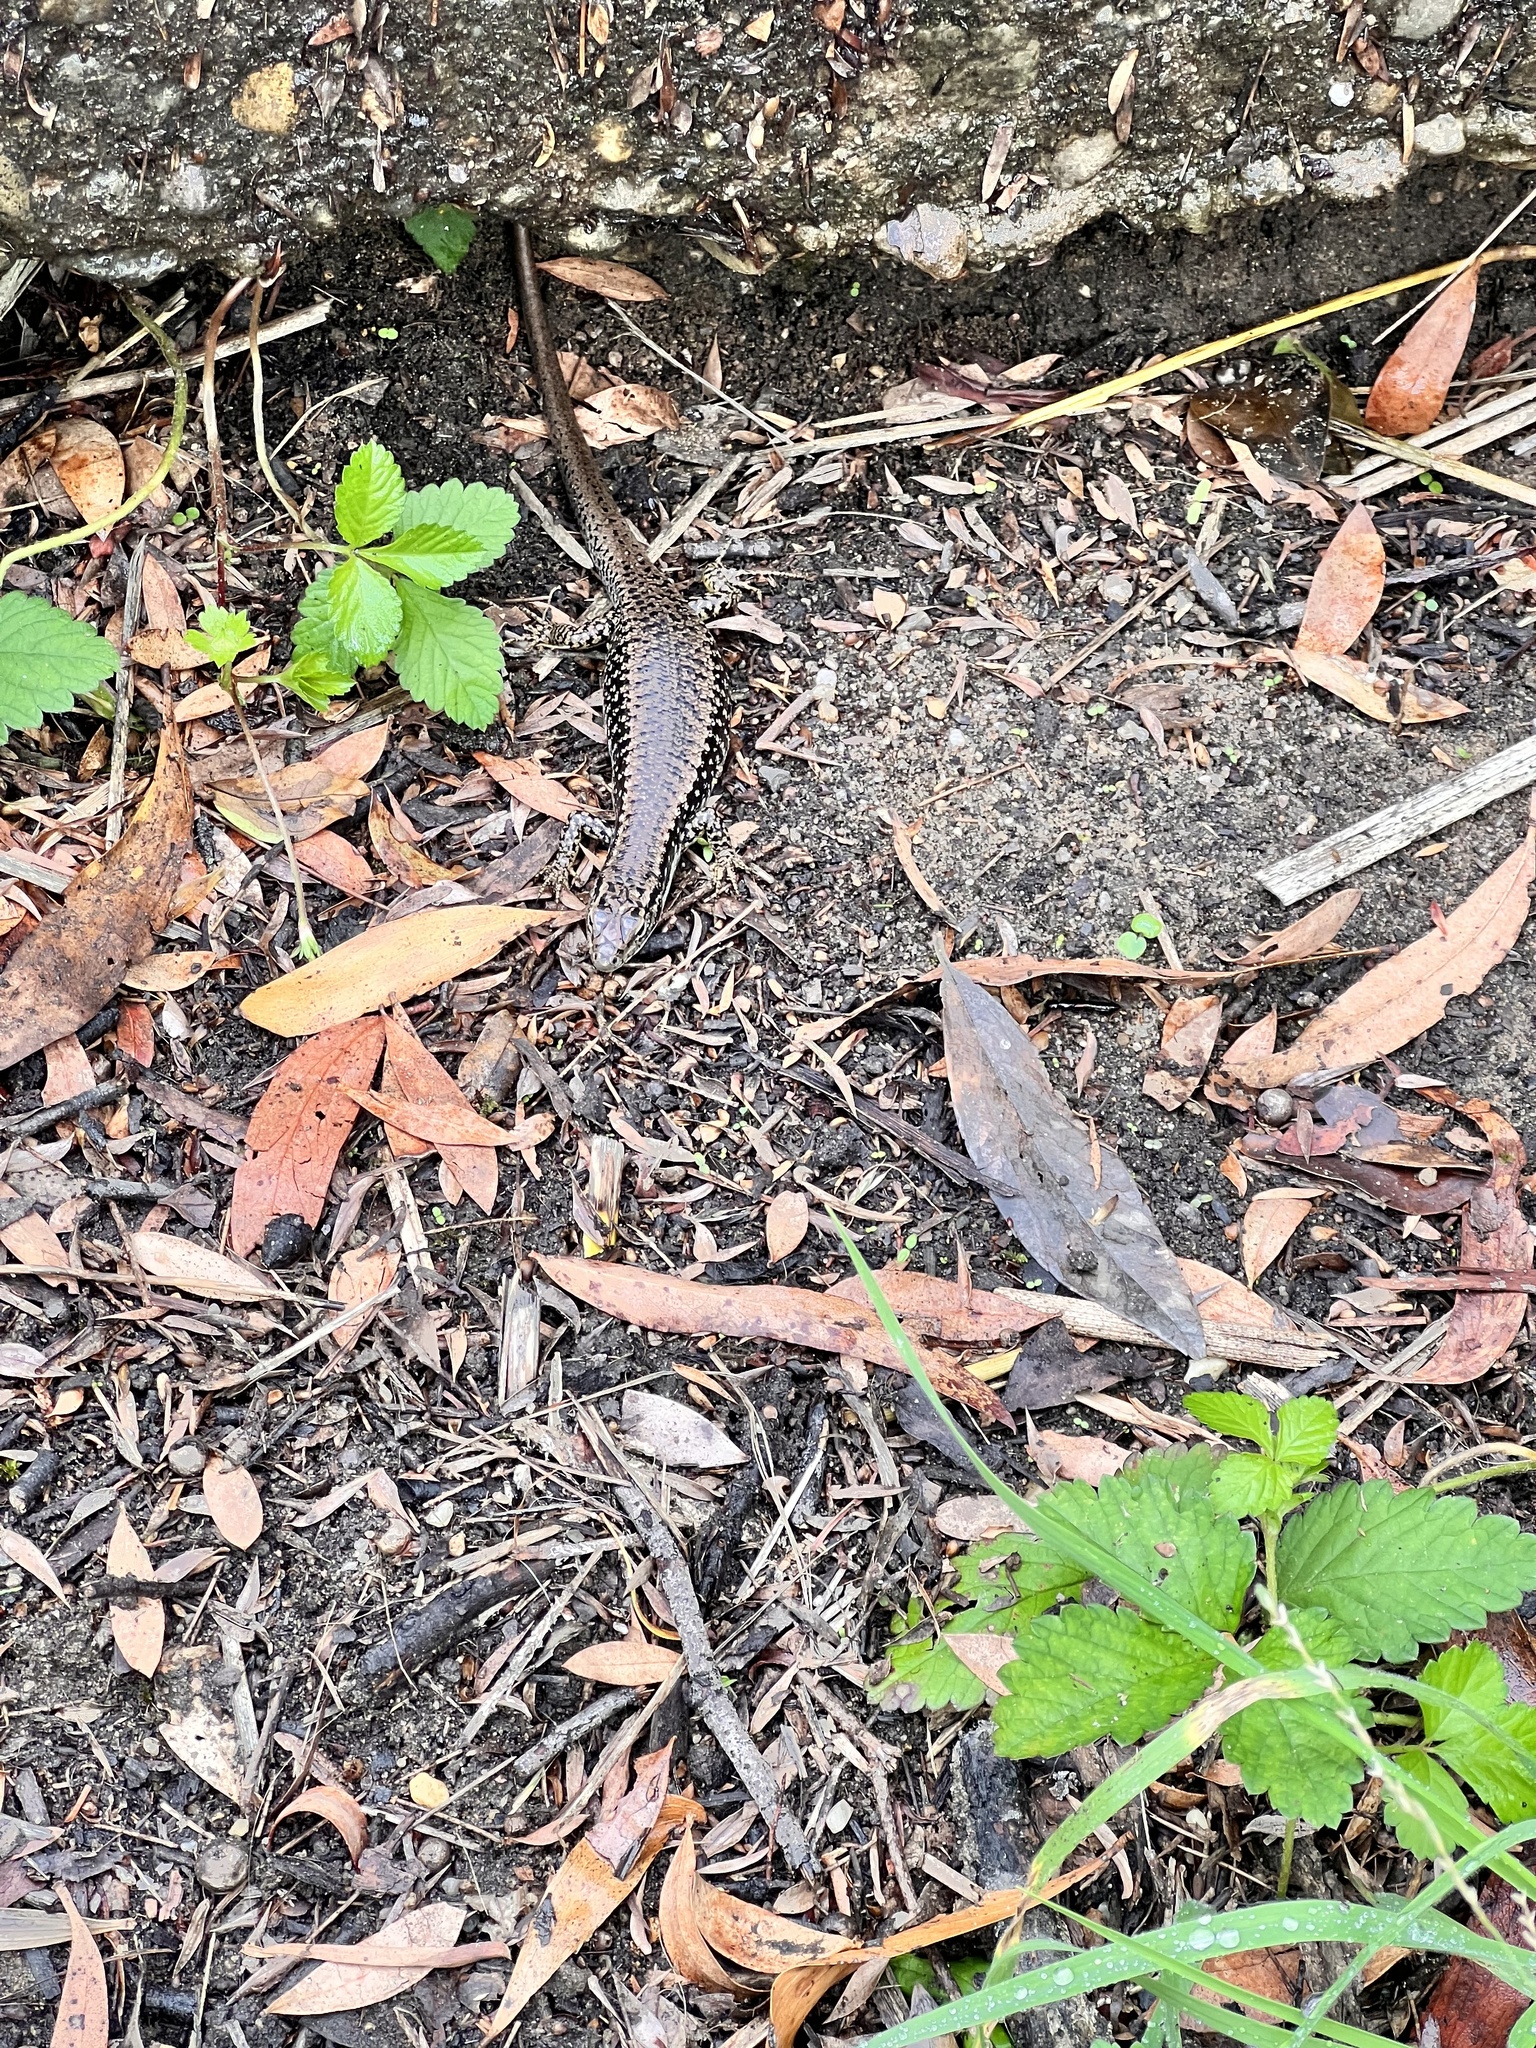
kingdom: Animalia
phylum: Chordata
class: Squamata
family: Scincidae
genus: Eulamprus
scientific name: Eulamprus heatwolei
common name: Warm-temperate water-skink
